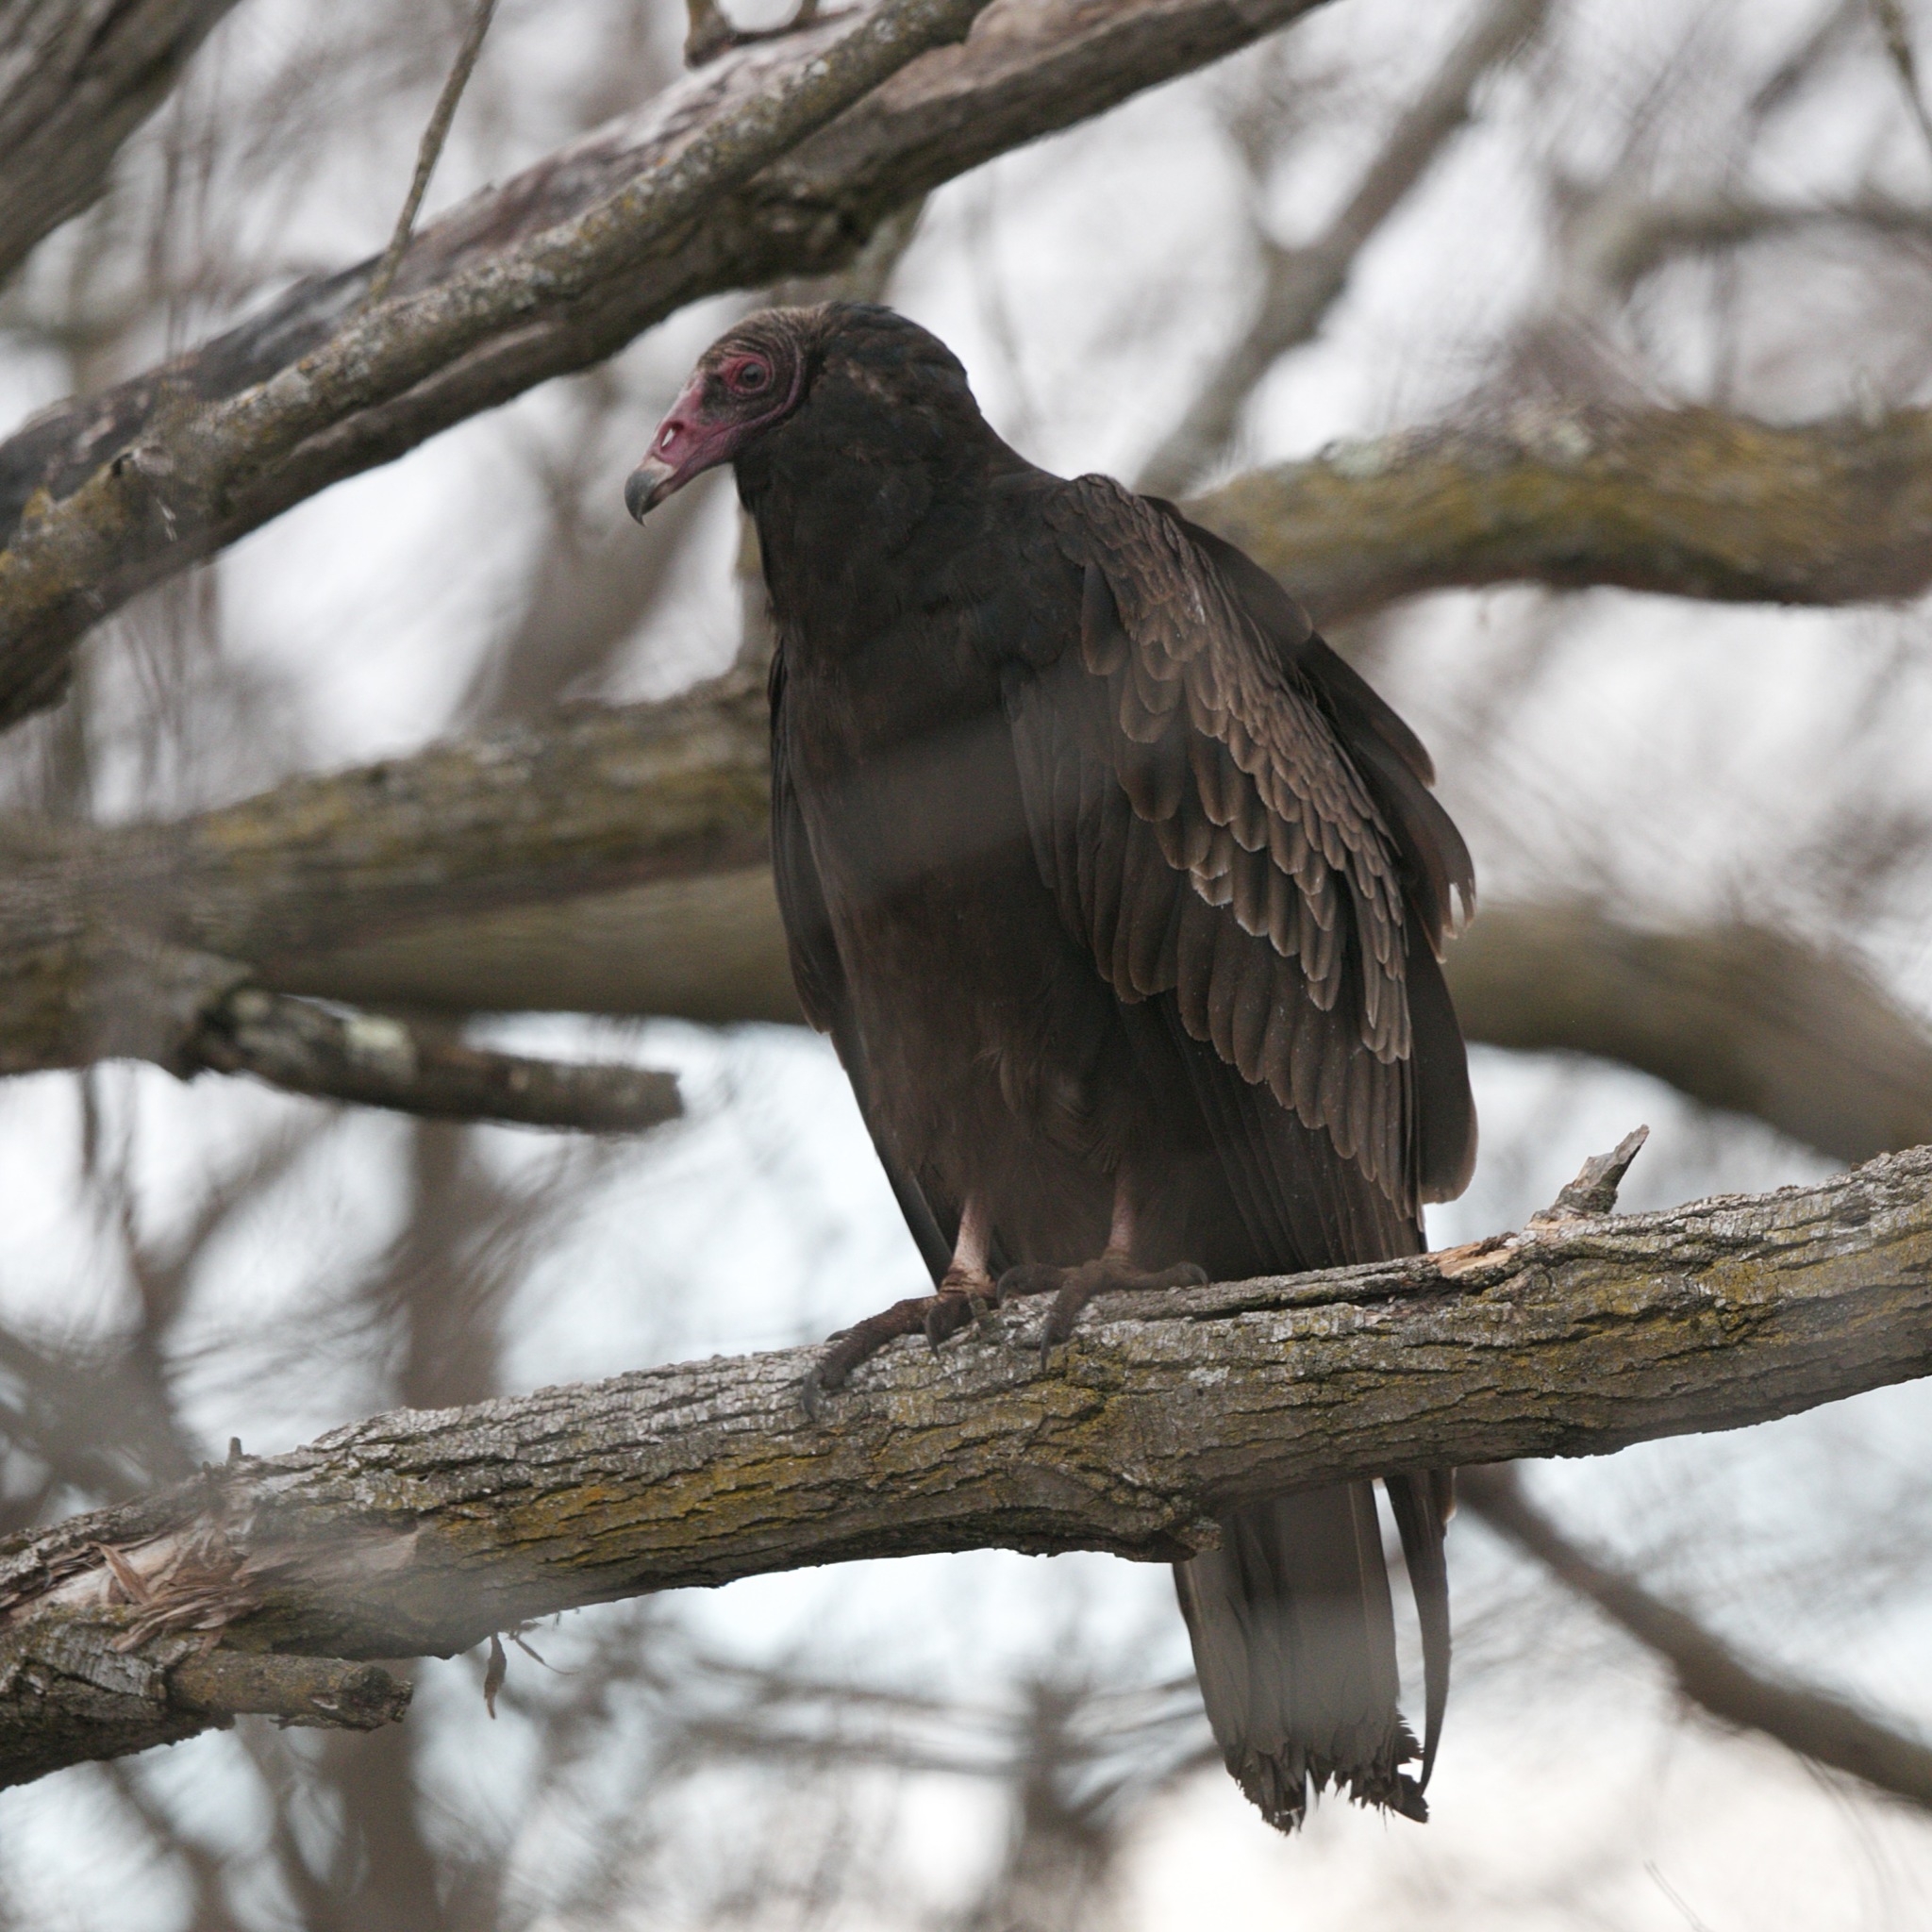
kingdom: Animalia
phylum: Chordata
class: Aves
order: Accipitriformes
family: Cathartidae
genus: Cathartes
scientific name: Cathartes aura
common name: Turkey vulture
